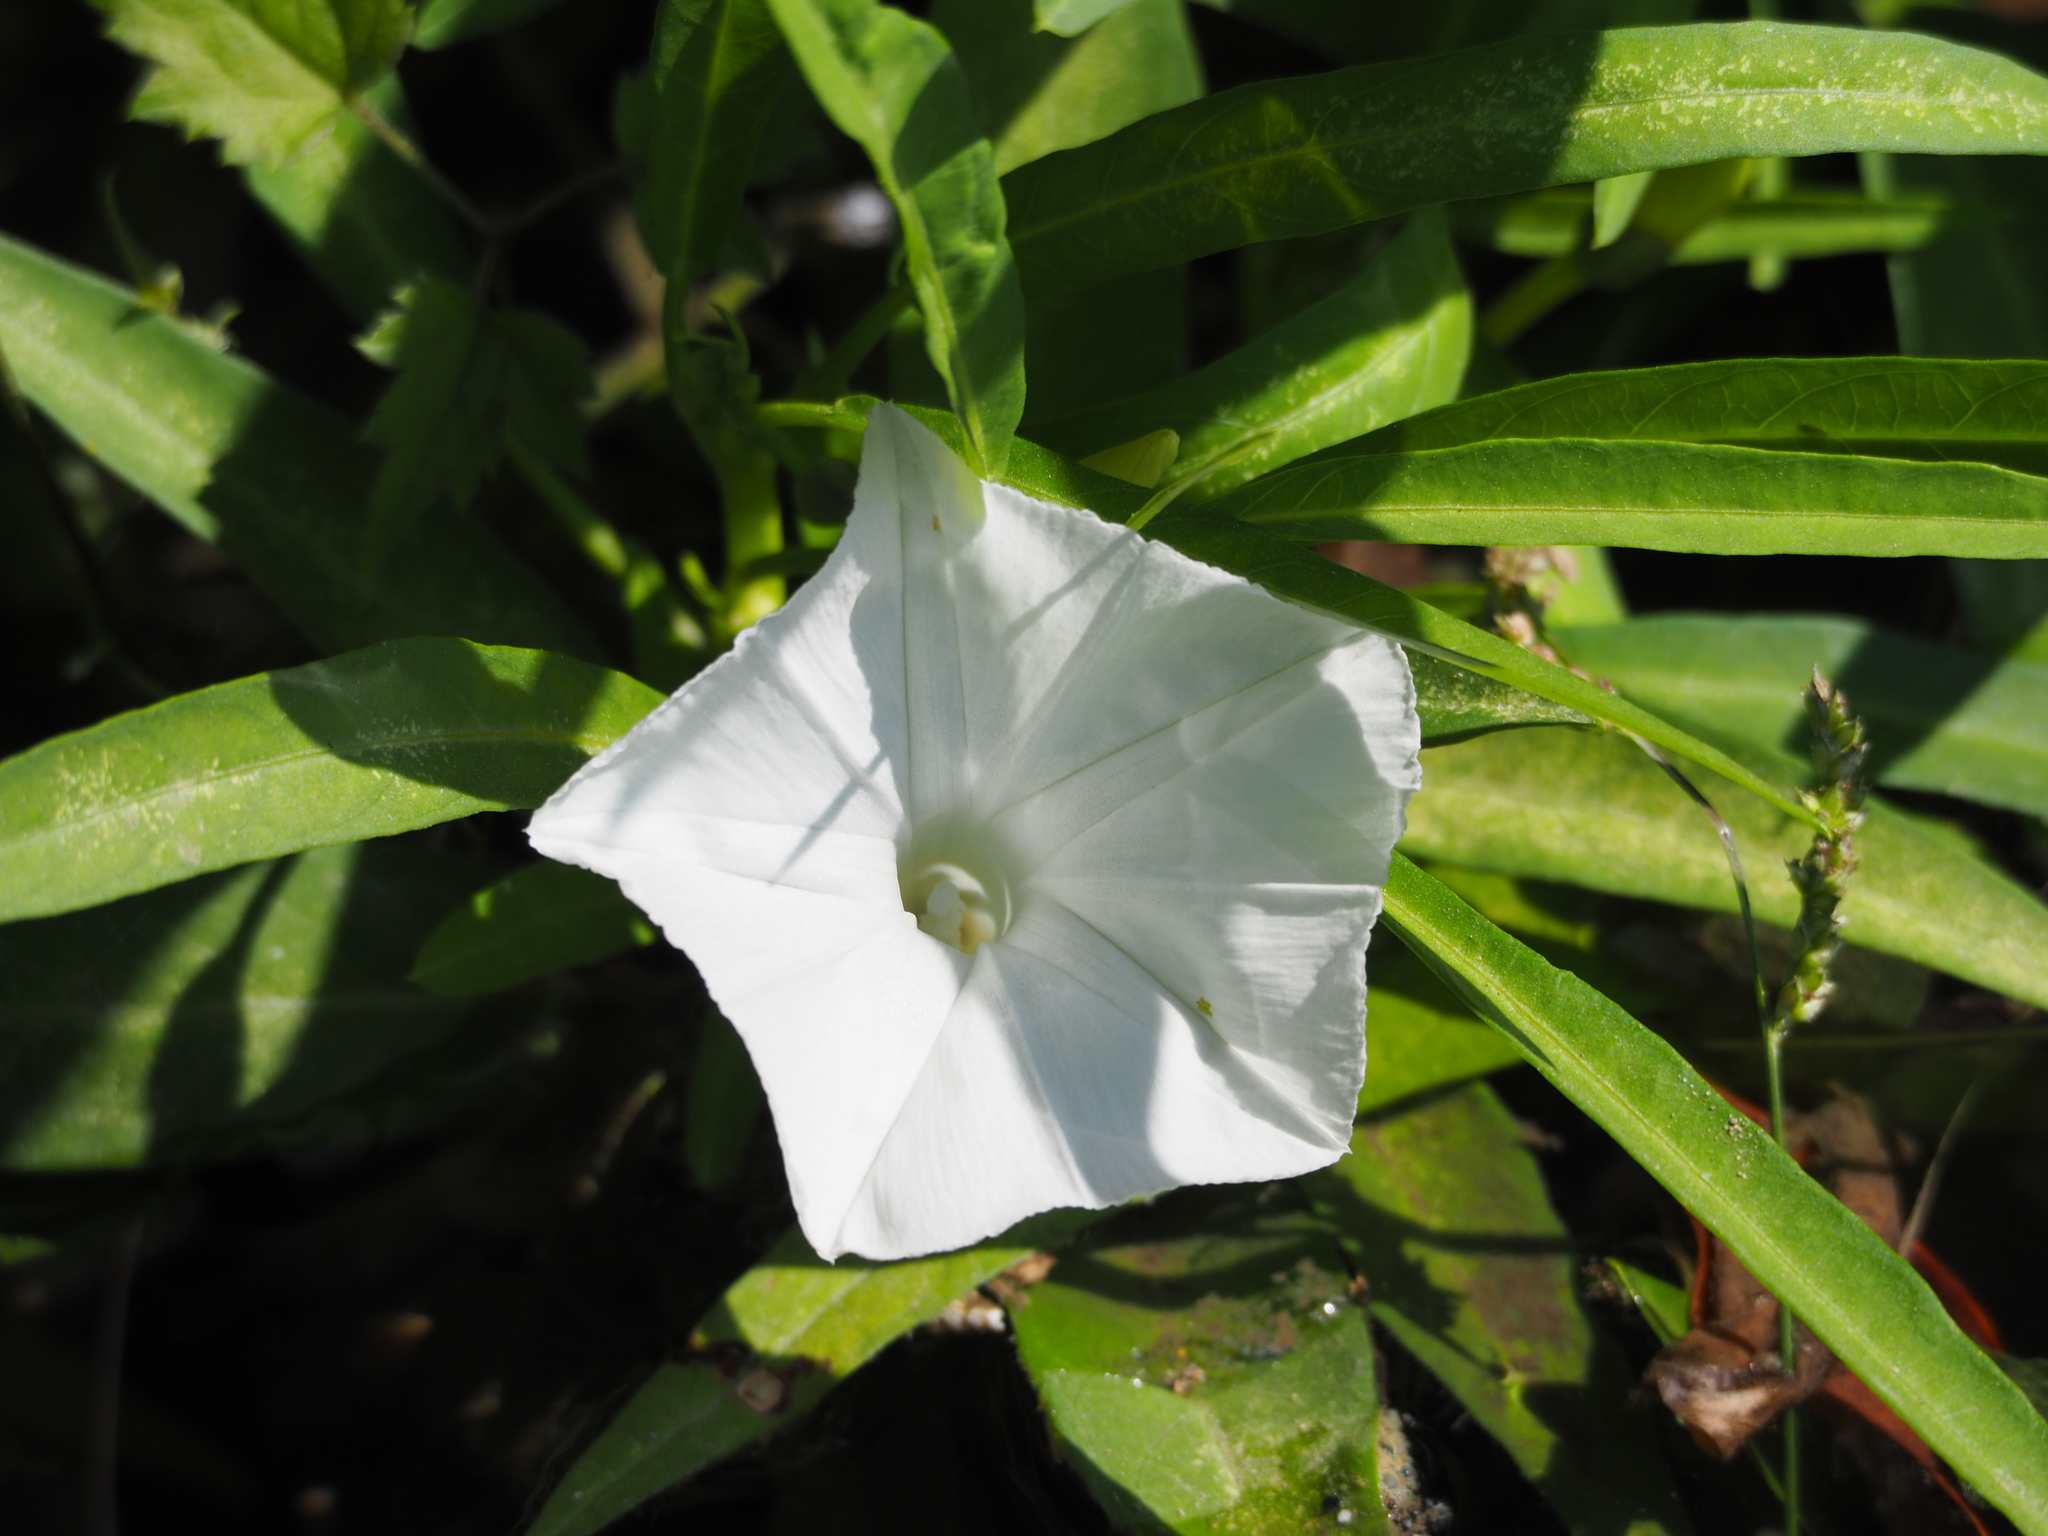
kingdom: Plantae
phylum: Tracheophyta
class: Magnoliopsida
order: Solanales
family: Convolvulaceae
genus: Ipomoea
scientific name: Ipomoea aquatica
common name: Swamp morning-glory
